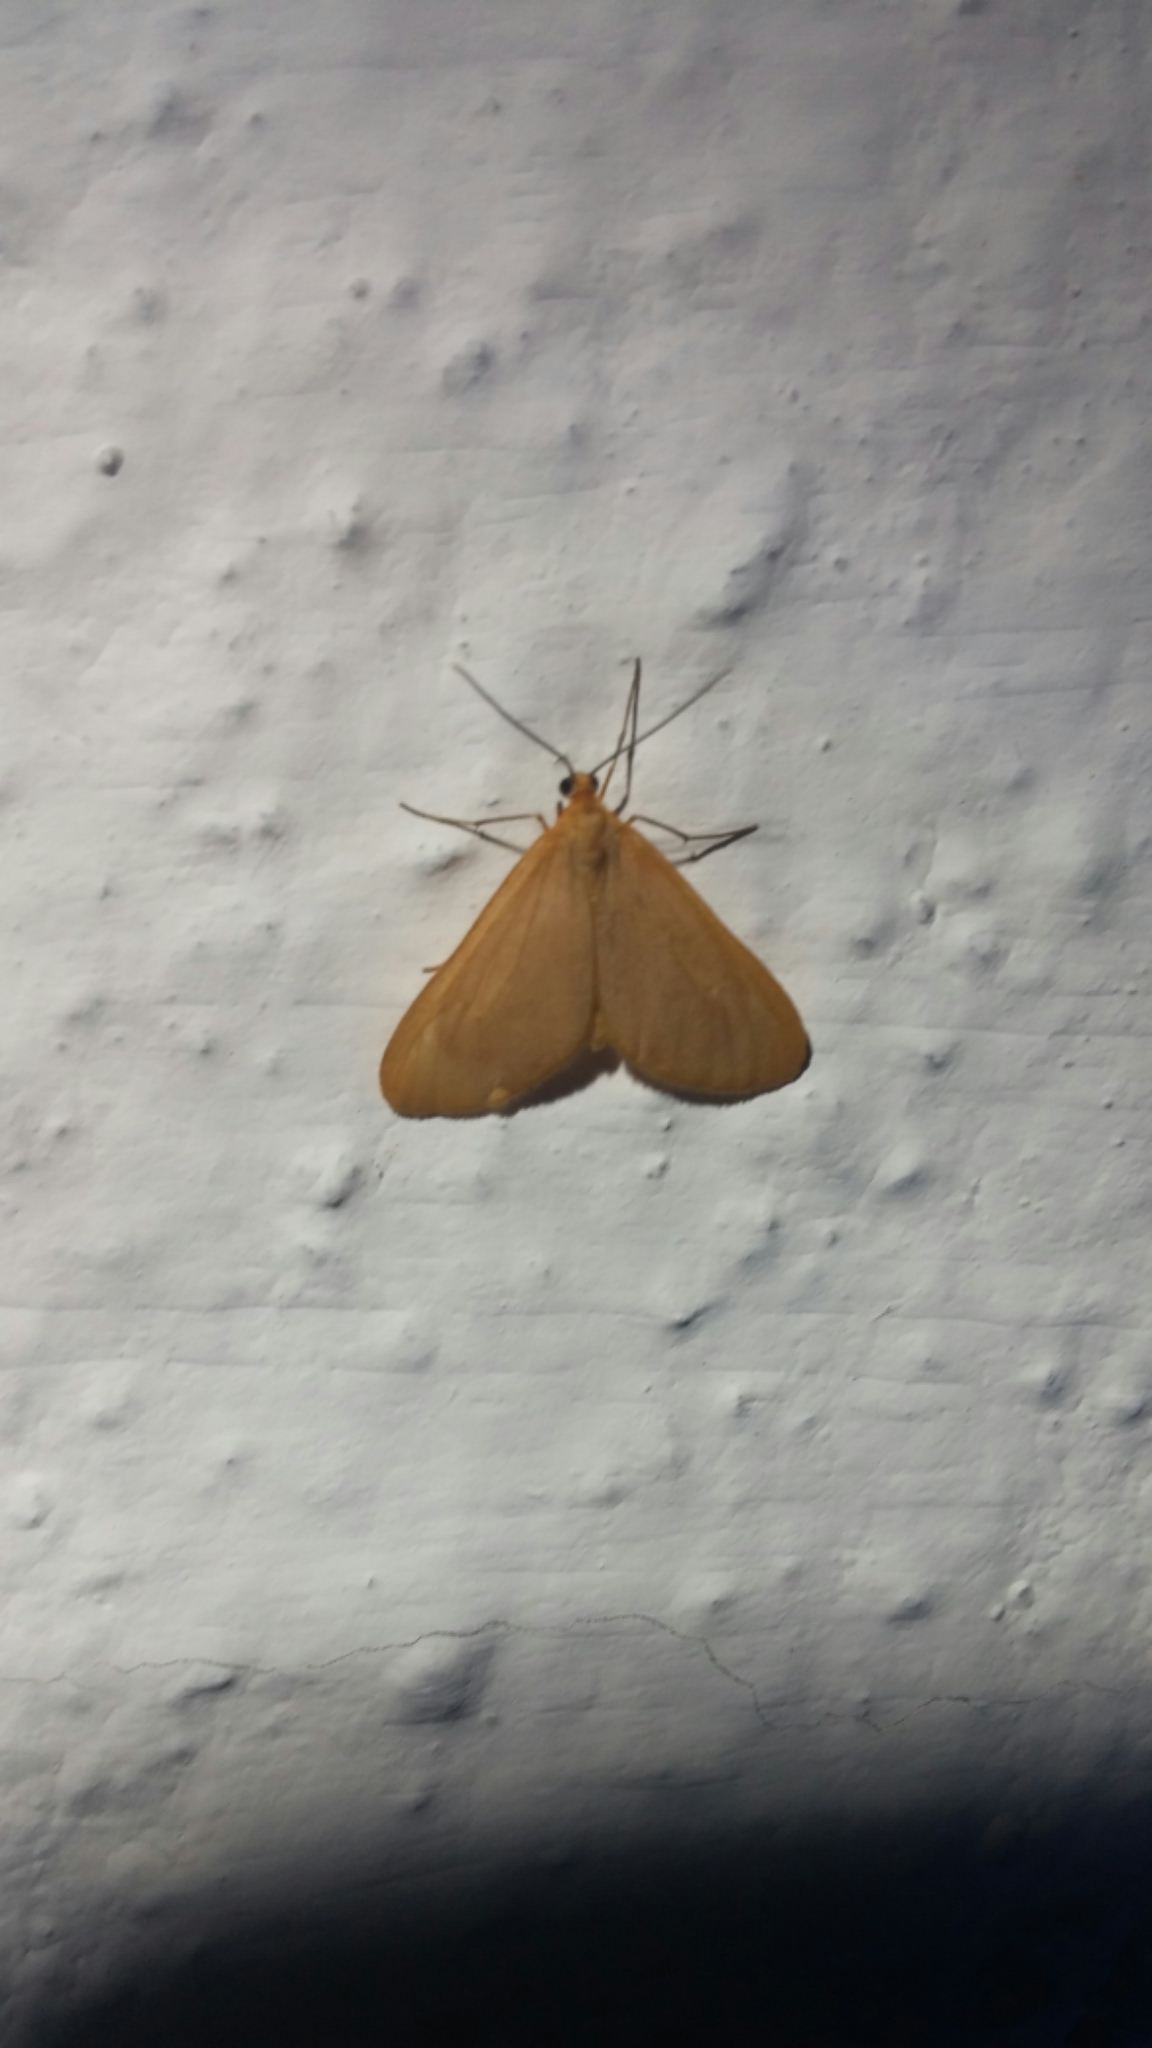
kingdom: Animalia
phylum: Arthropoda
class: Insecta
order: Lepidoptera
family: Geometridae
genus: Eubaphe
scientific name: Eubaphe unicolor
